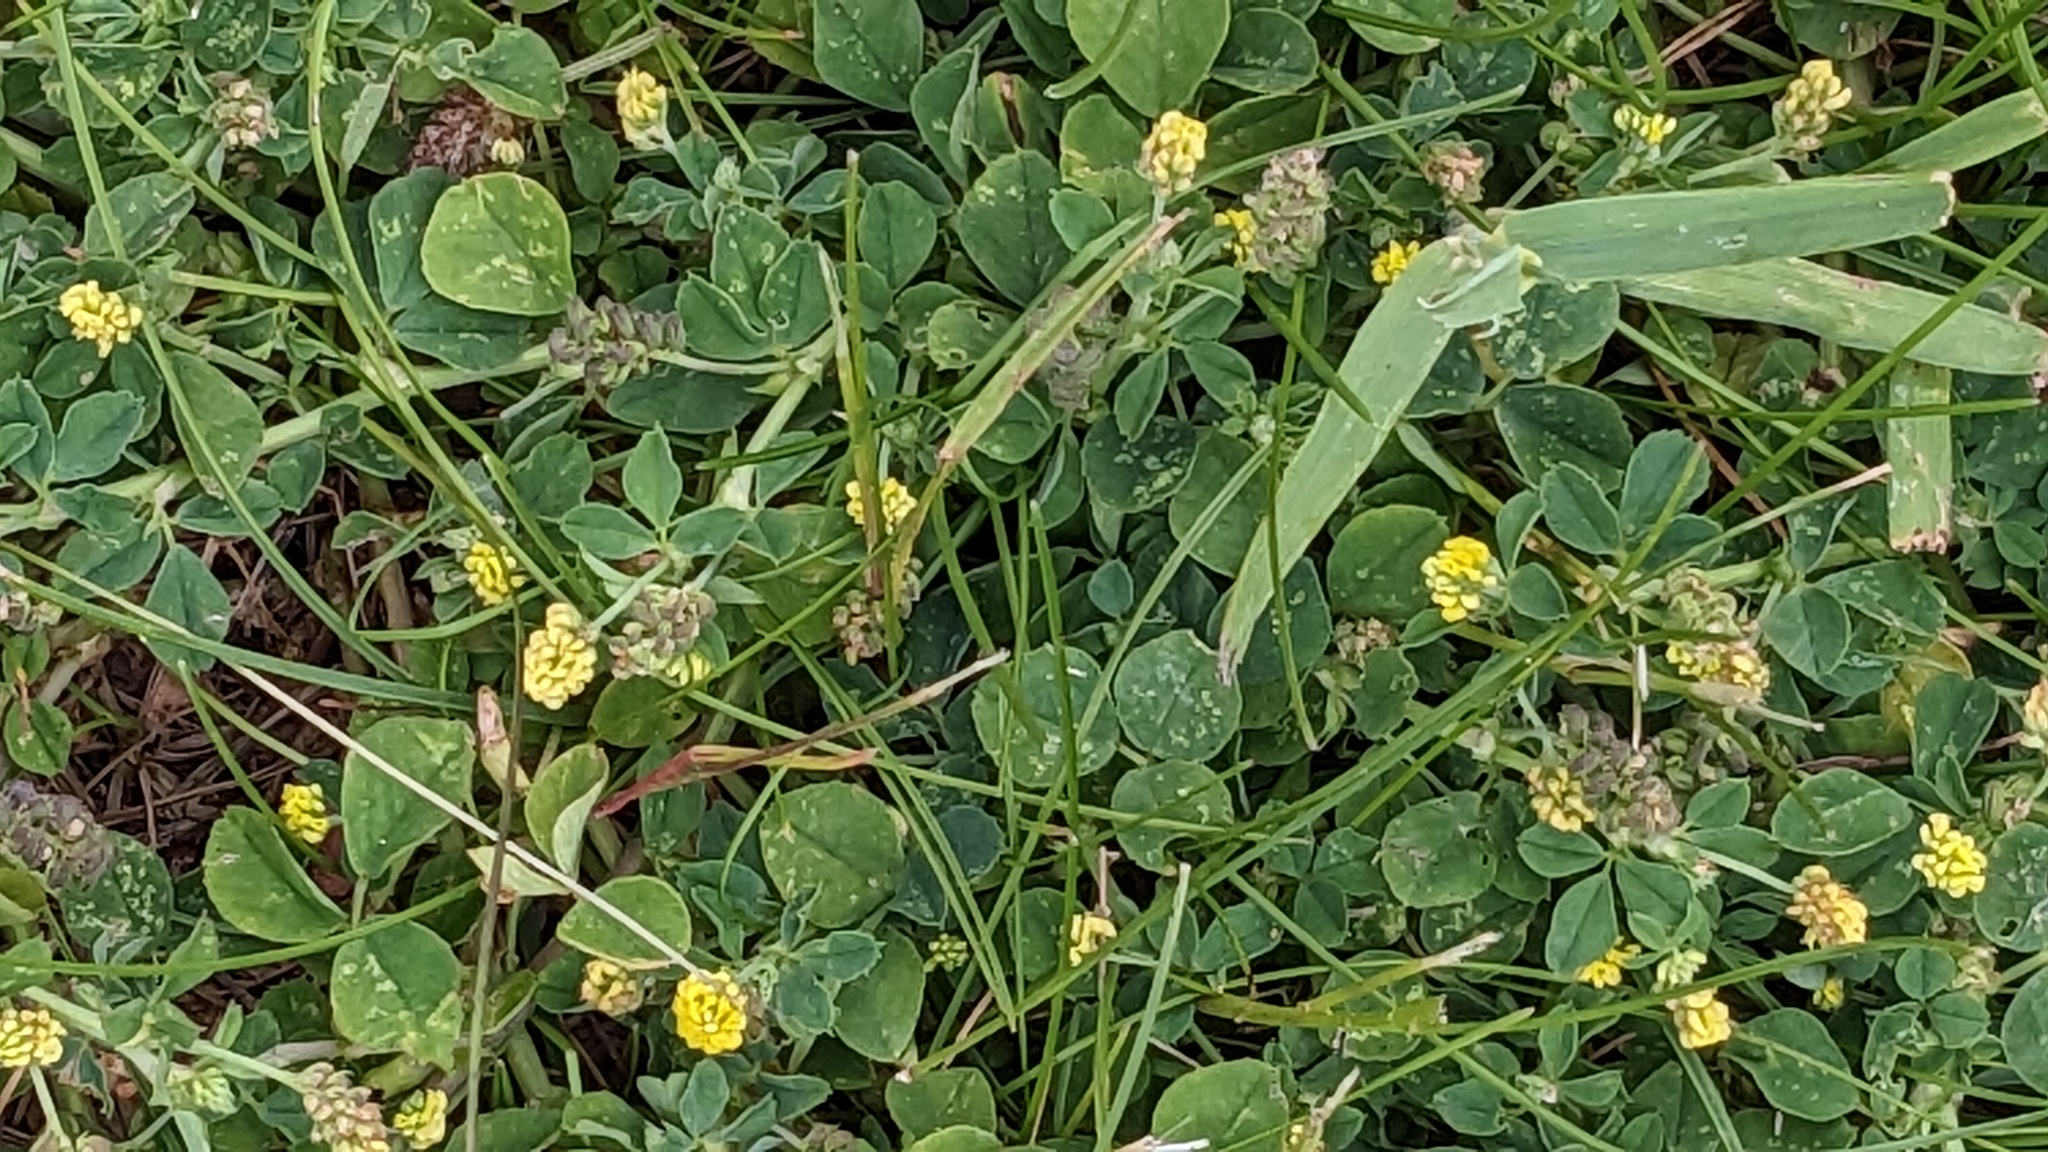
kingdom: Plantae
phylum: Tracheophyta
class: Magnoliopsida
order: Fabales
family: Fabaceae
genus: Medicago
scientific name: Medicago lupulina
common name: Black medick
